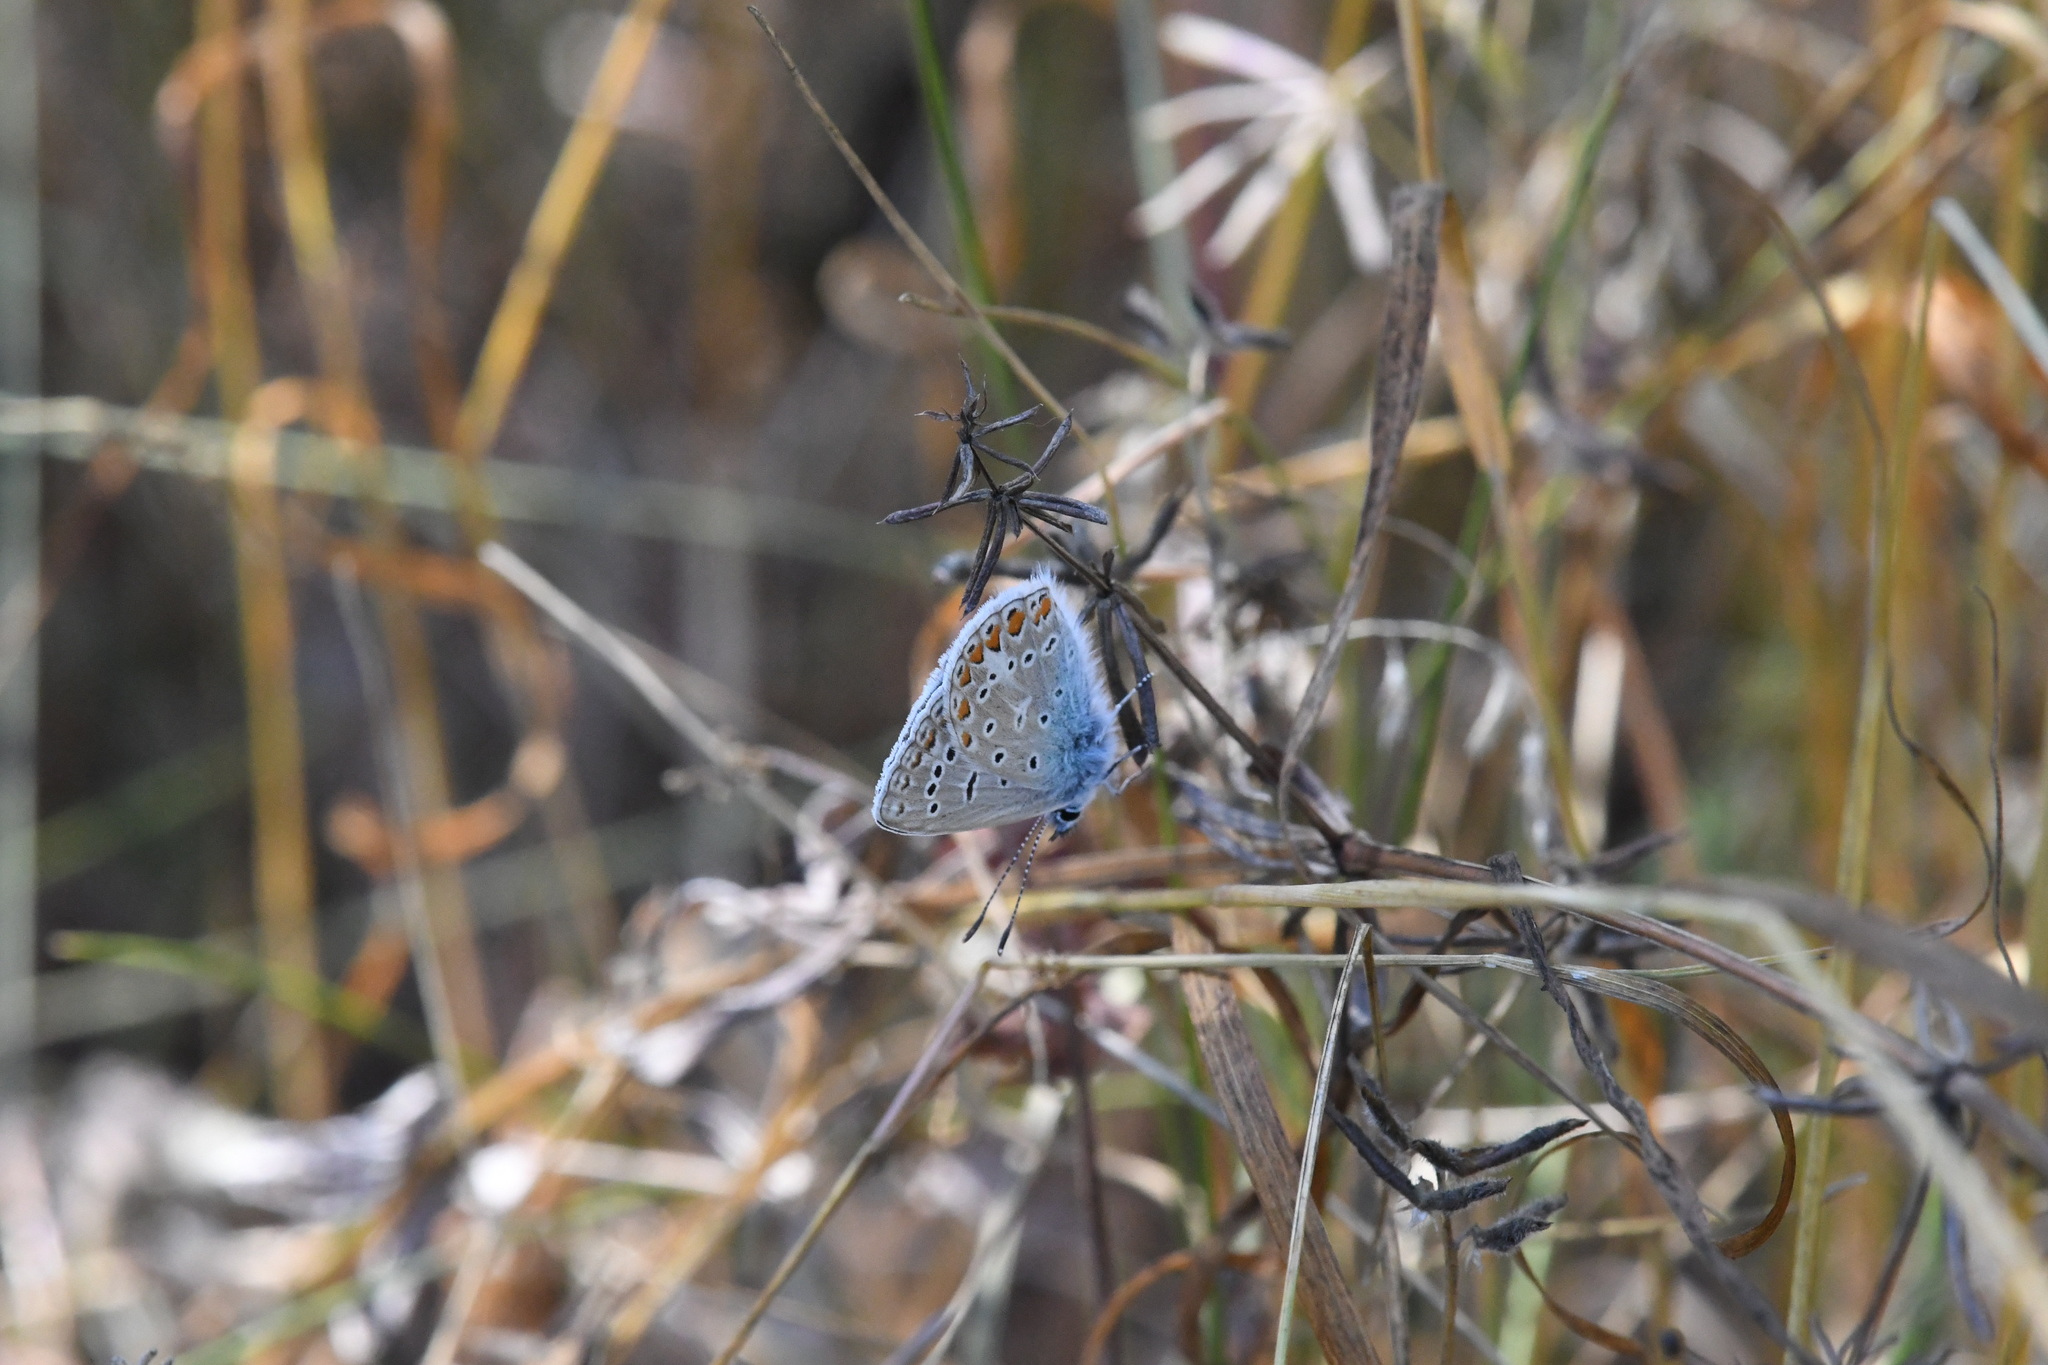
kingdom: Animalia
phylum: Arthropoda
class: Insecta
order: Lepidoptera
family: Lycaenidae
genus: Polyommatus
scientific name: Polyommatus icarus
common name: Common blue
